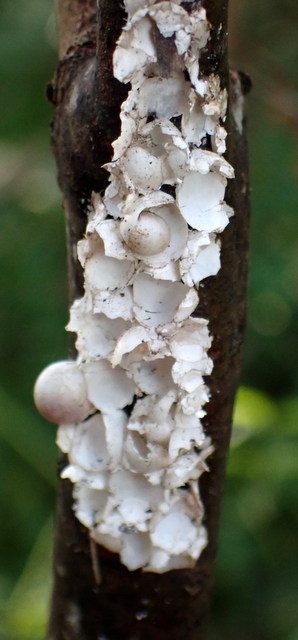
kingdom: Animalia
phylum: Mollusca
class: Gastropoda
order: Architaenioglossa
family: Ampullariidae
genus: Pomacea
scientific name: Pomacea paludosa
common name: Florida applesnail
